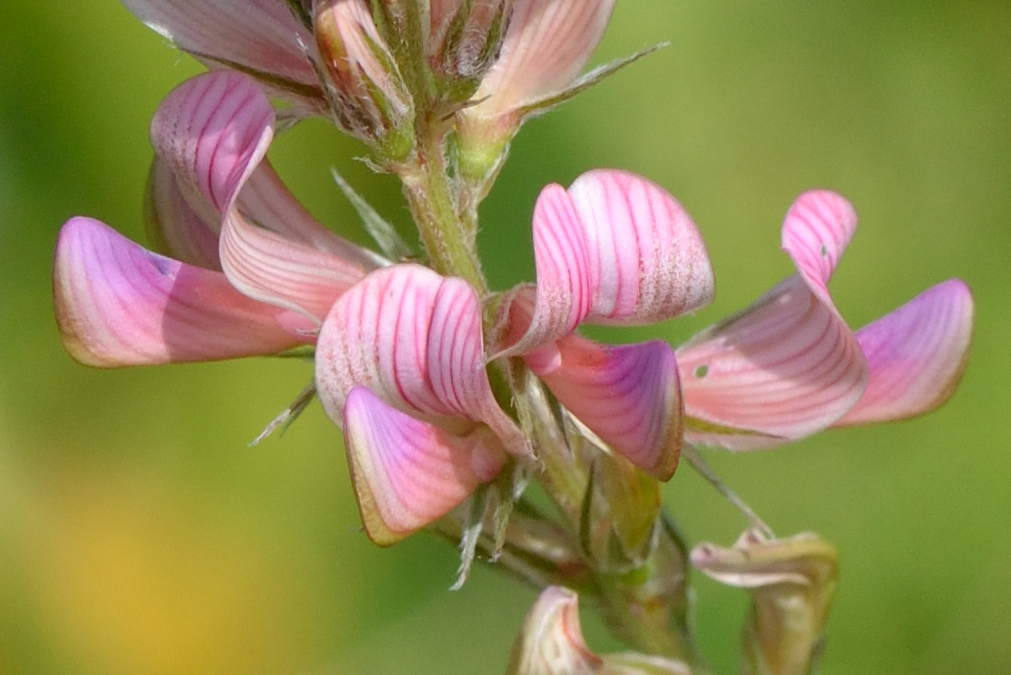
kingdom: Plantae
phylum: Tracheophyta
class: Magnoliopsida
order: Fabales
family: Fabaceae
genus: Onobrychis
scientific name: Onobrychis arenaria
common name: Sand esparcet
